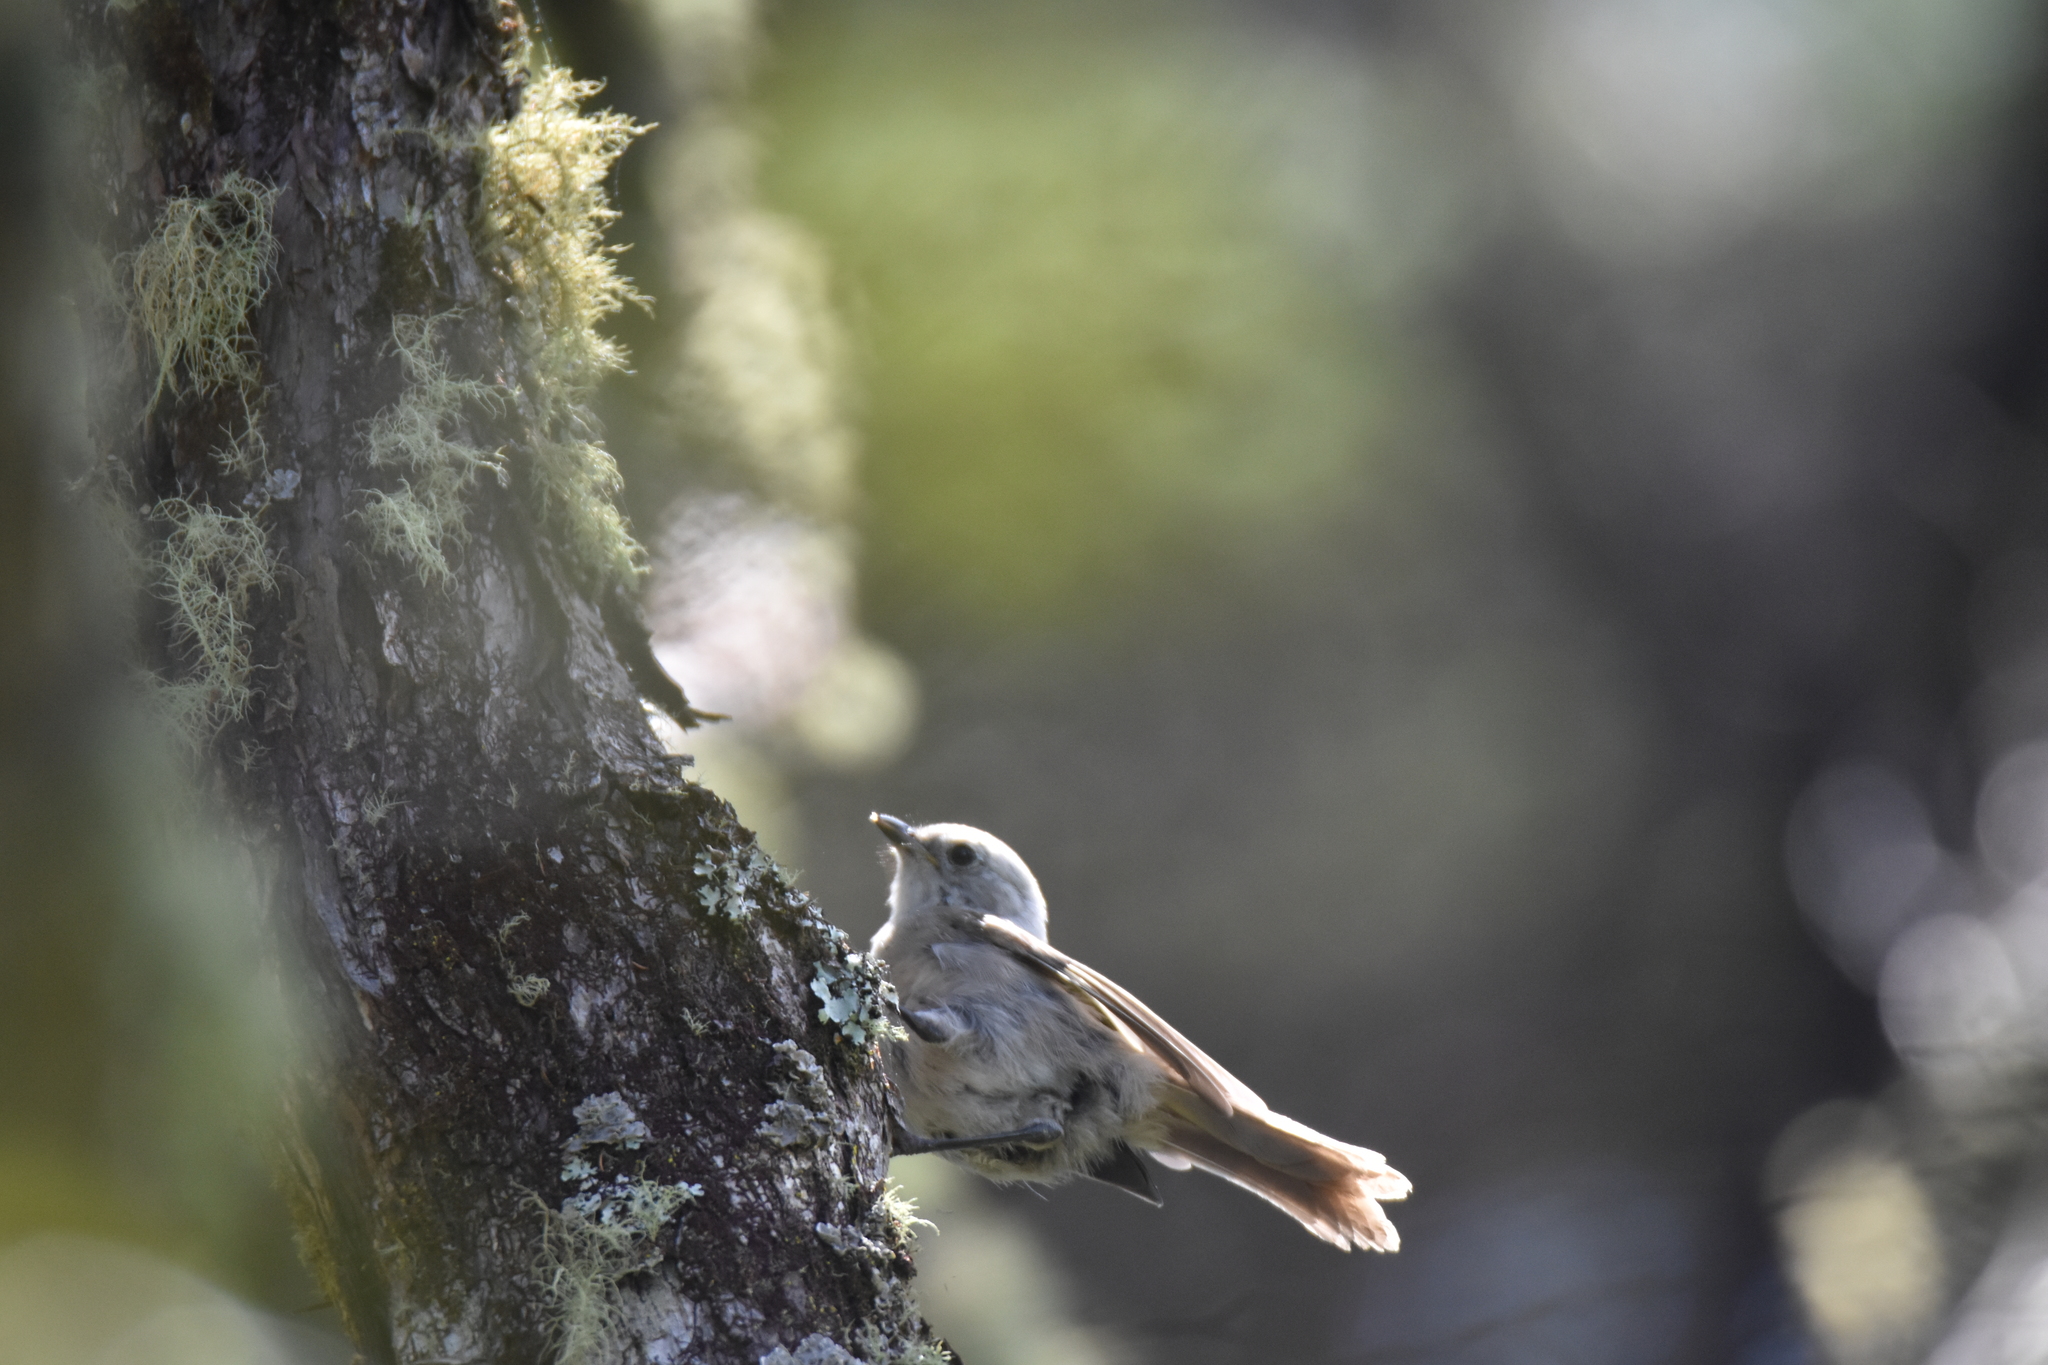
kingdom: Animalia
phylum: Chordata
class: Aves
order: Passeriformes
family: Acanthizidae
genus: Mohoua
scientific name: Mohoua albicilla
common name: Whitehead
